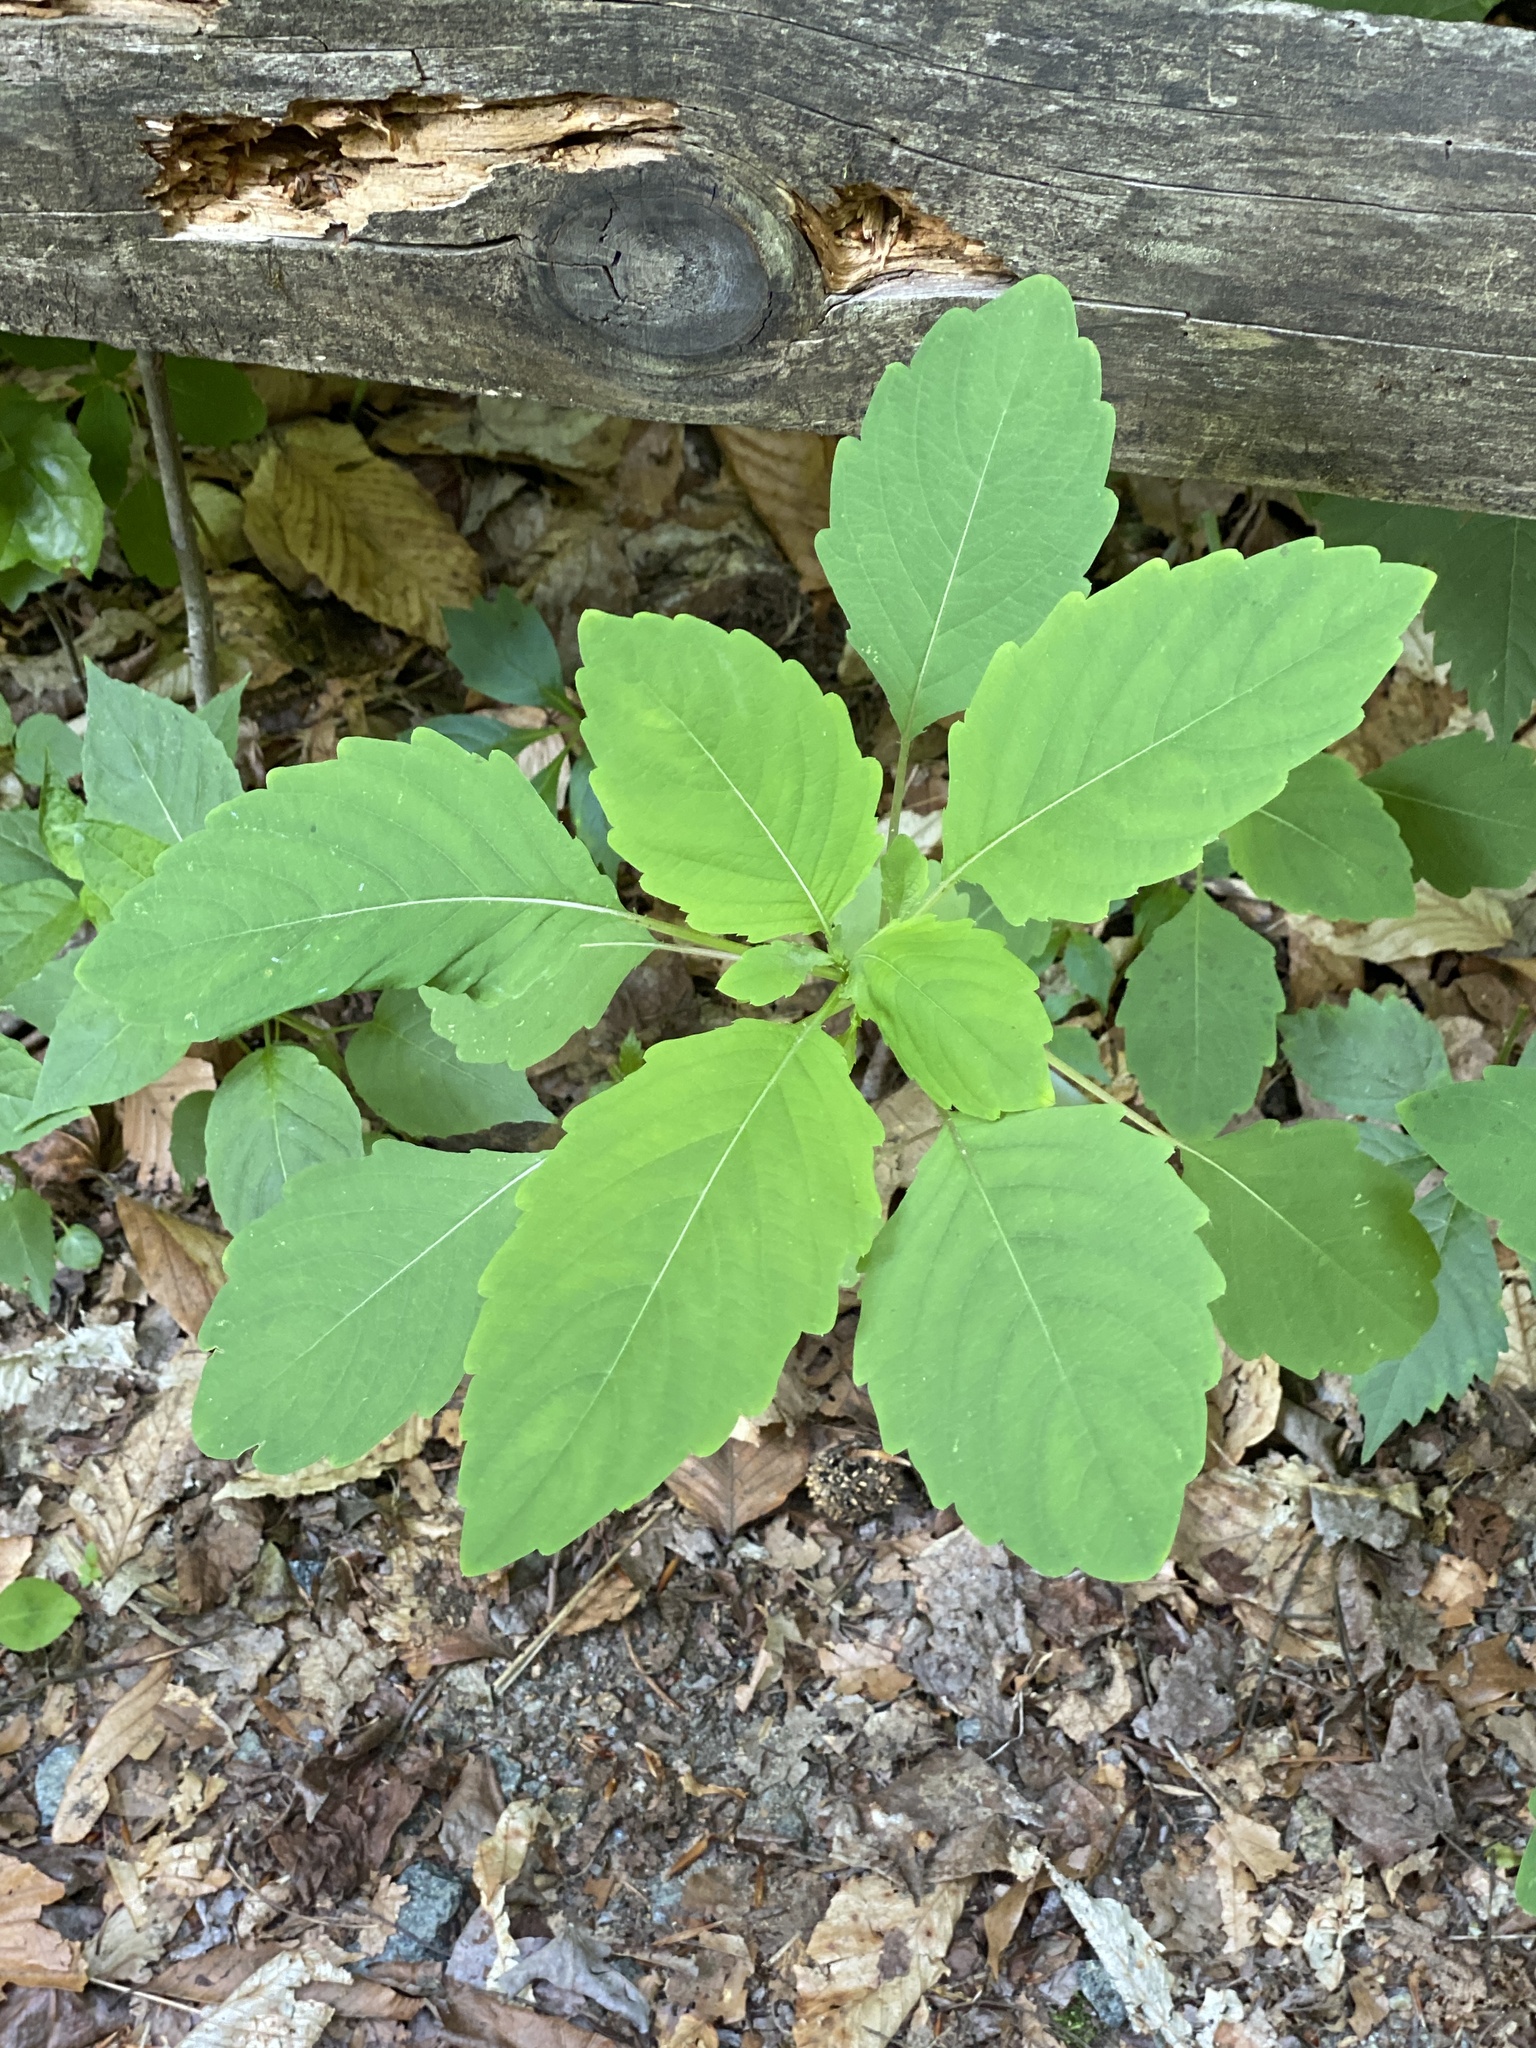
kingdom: Plantae
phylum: Tracheophyta
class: Magnoliopsida
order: Ericales
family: Balsaminaceae
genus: Impatiens
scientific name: Impatiens
